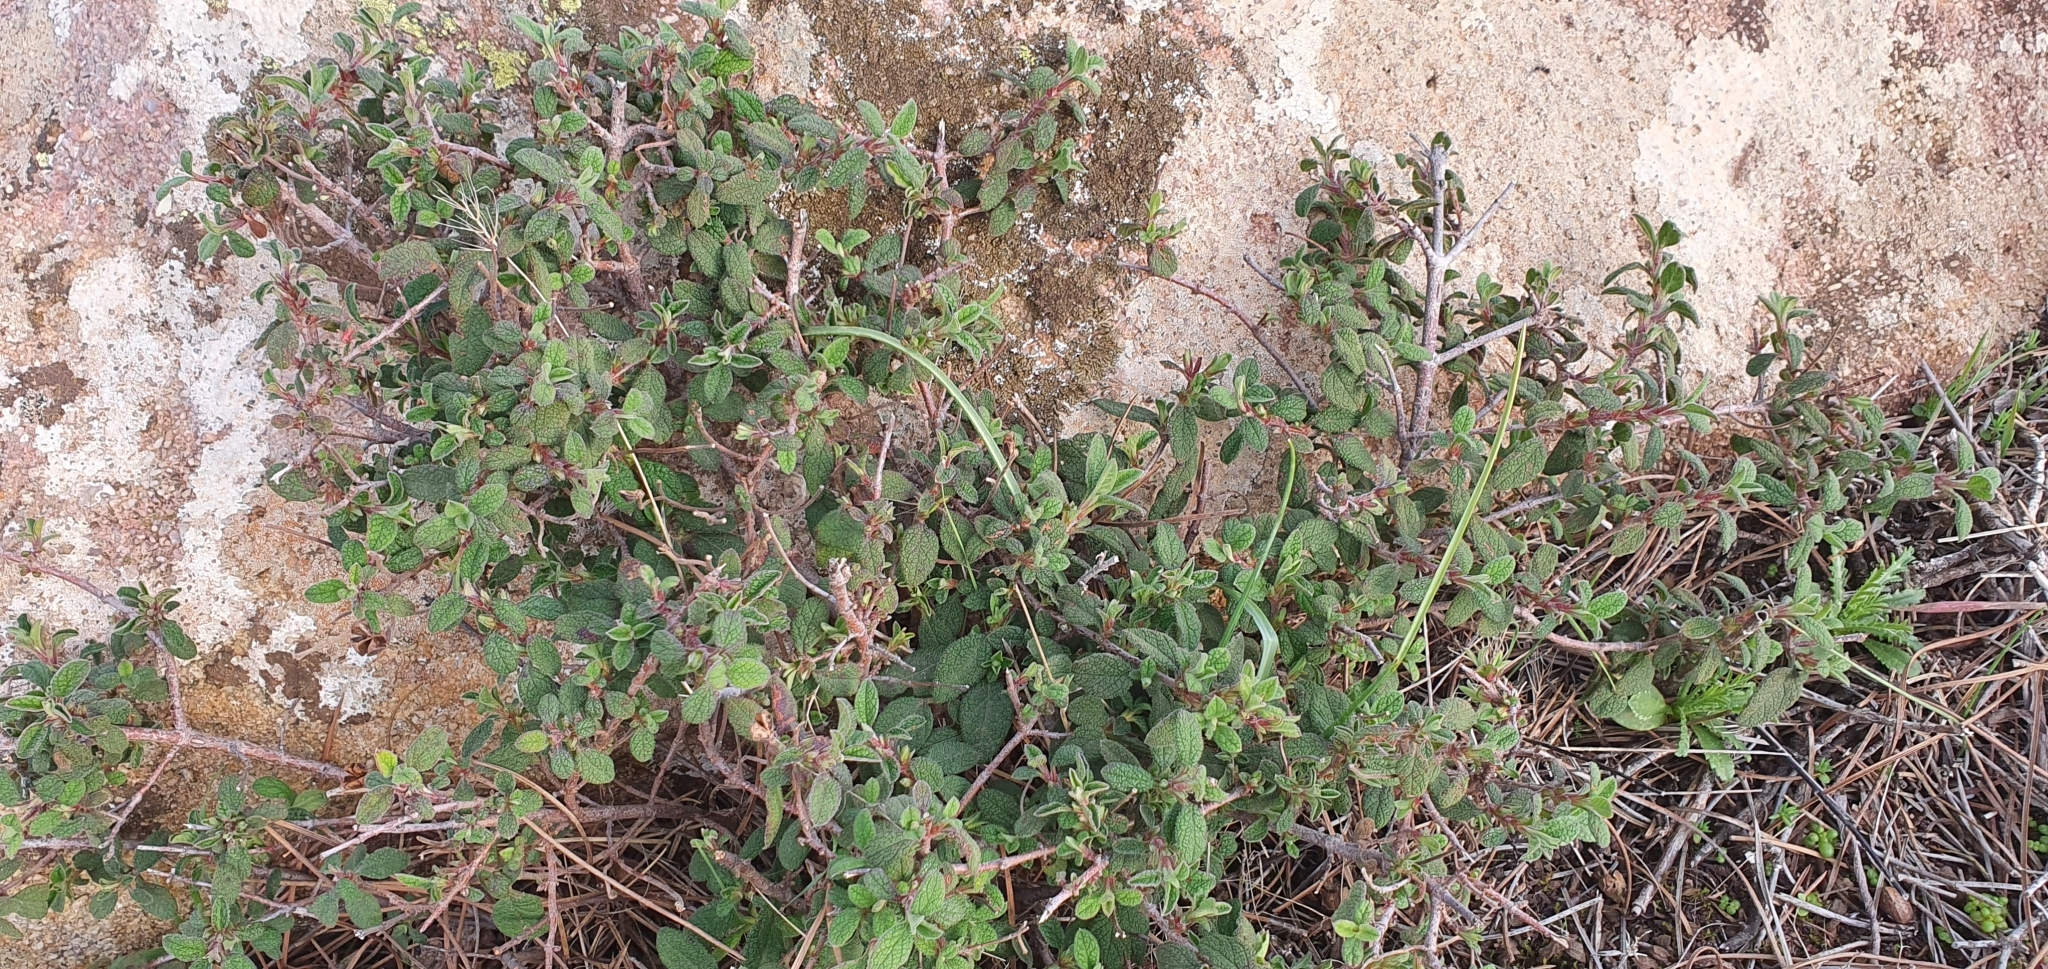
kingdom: Plantae
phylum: Tracheophyta
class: Magnoliopsida
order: Malvales
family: Cistaceae
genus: Cistus
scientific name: Cistus salviifolius
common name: Salvia cistus
